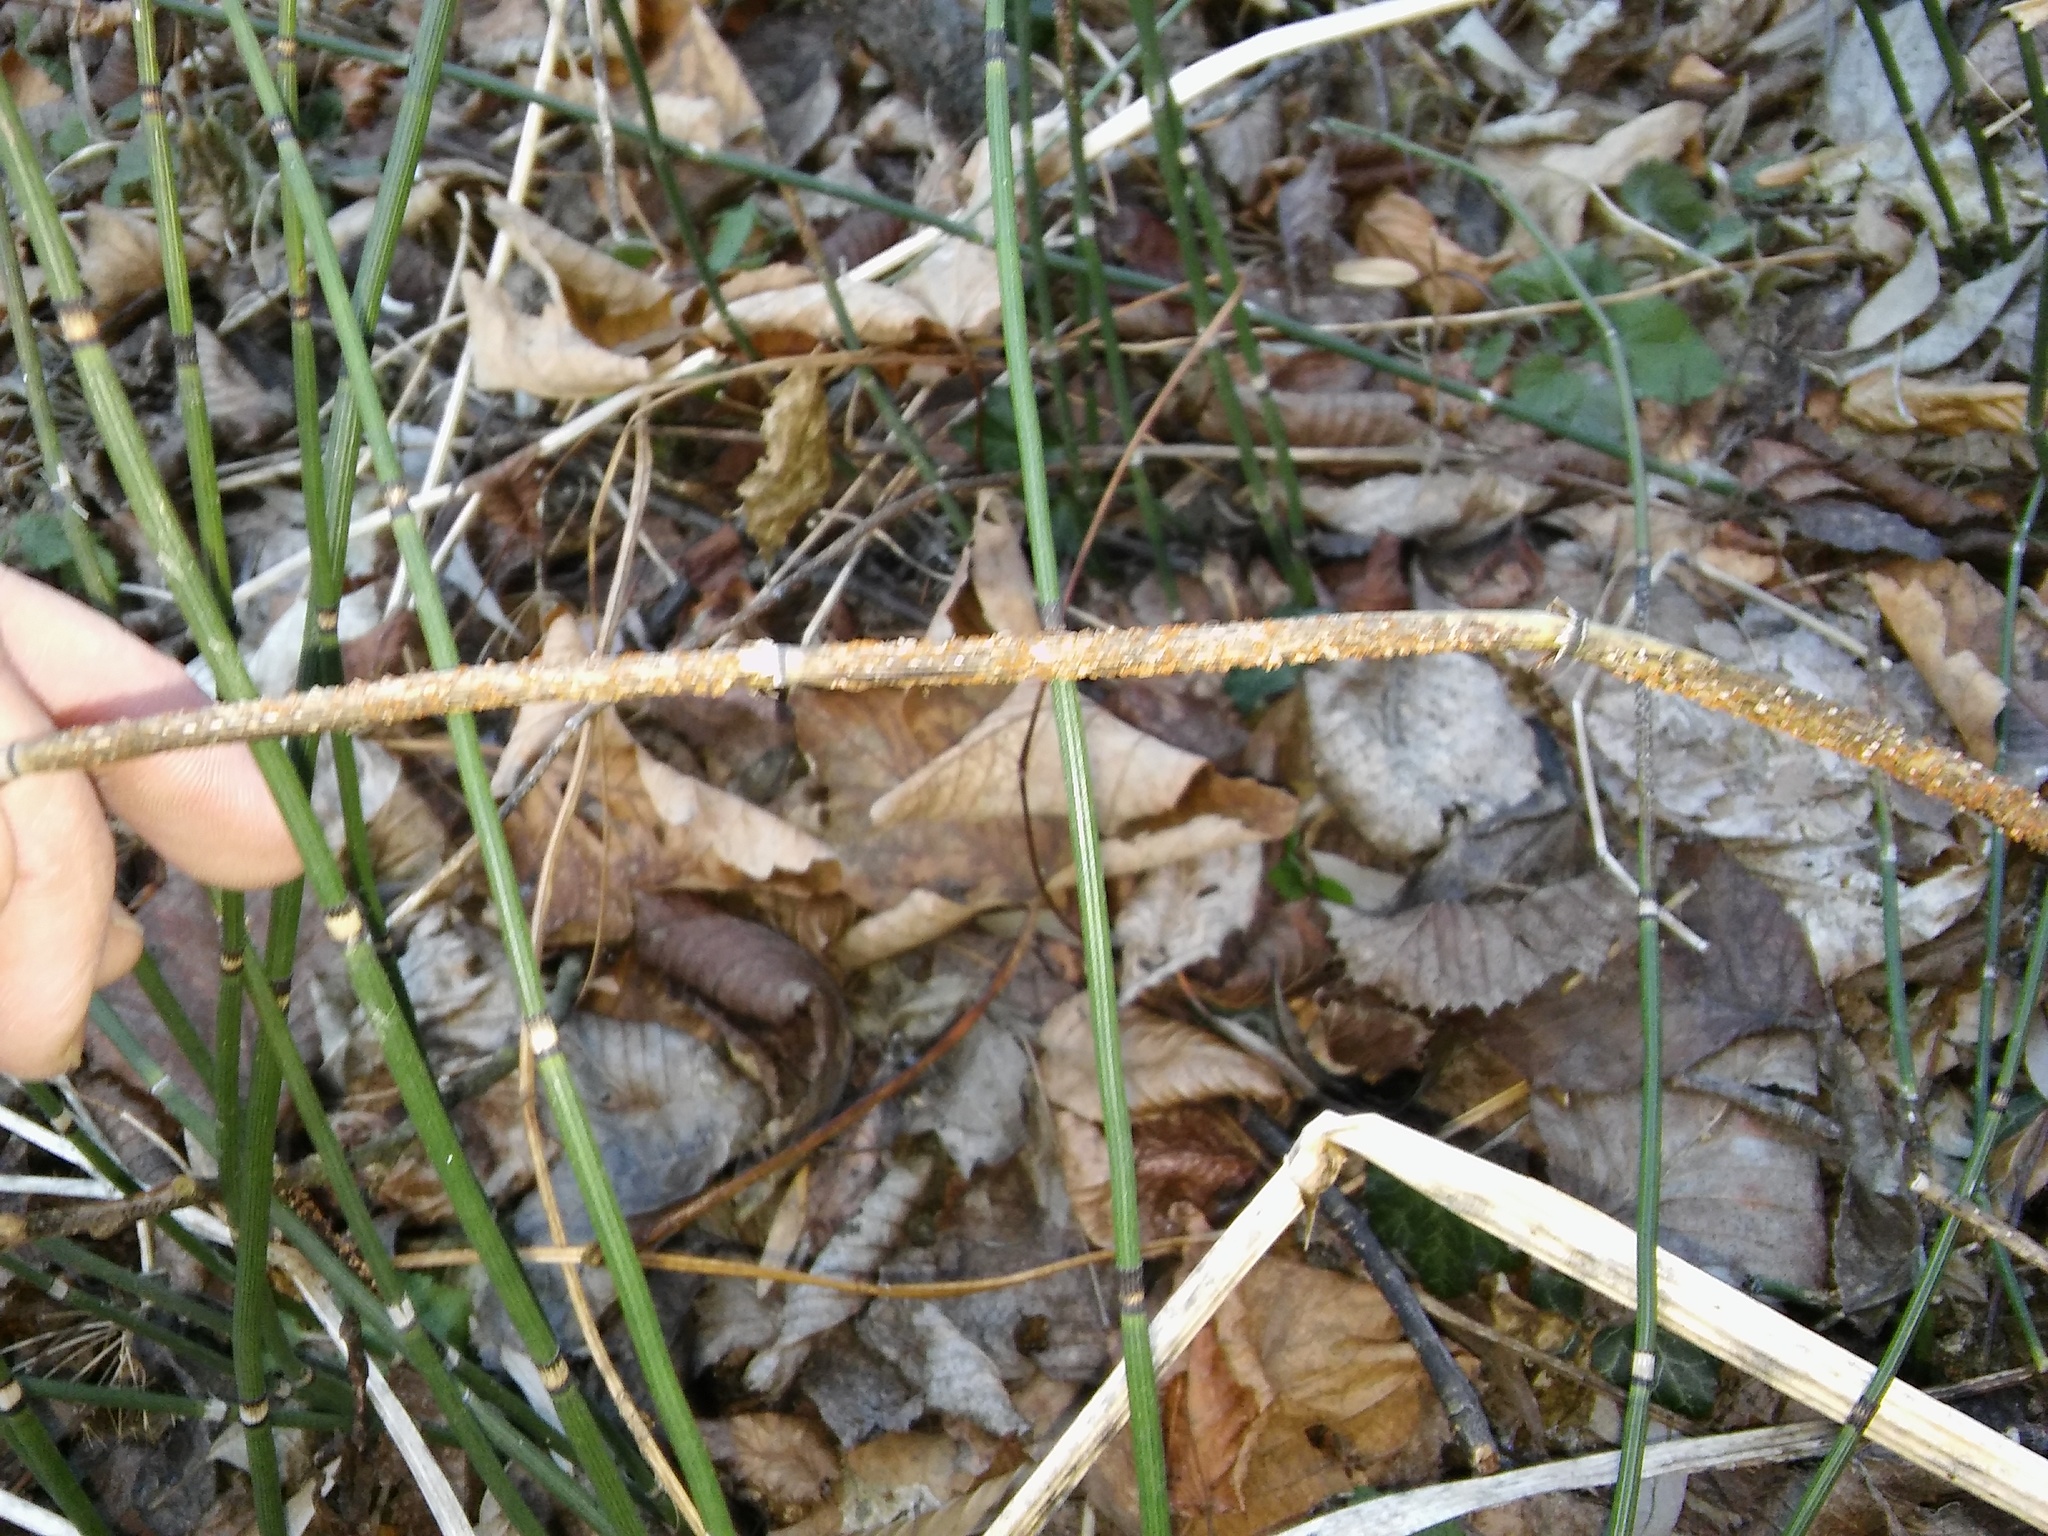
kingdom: Fungi
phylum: Ascomycota
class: Leotiomycetes
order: Helotiales
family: Helotiaceae
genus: Stamnaria
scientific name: Stamnaria americana
